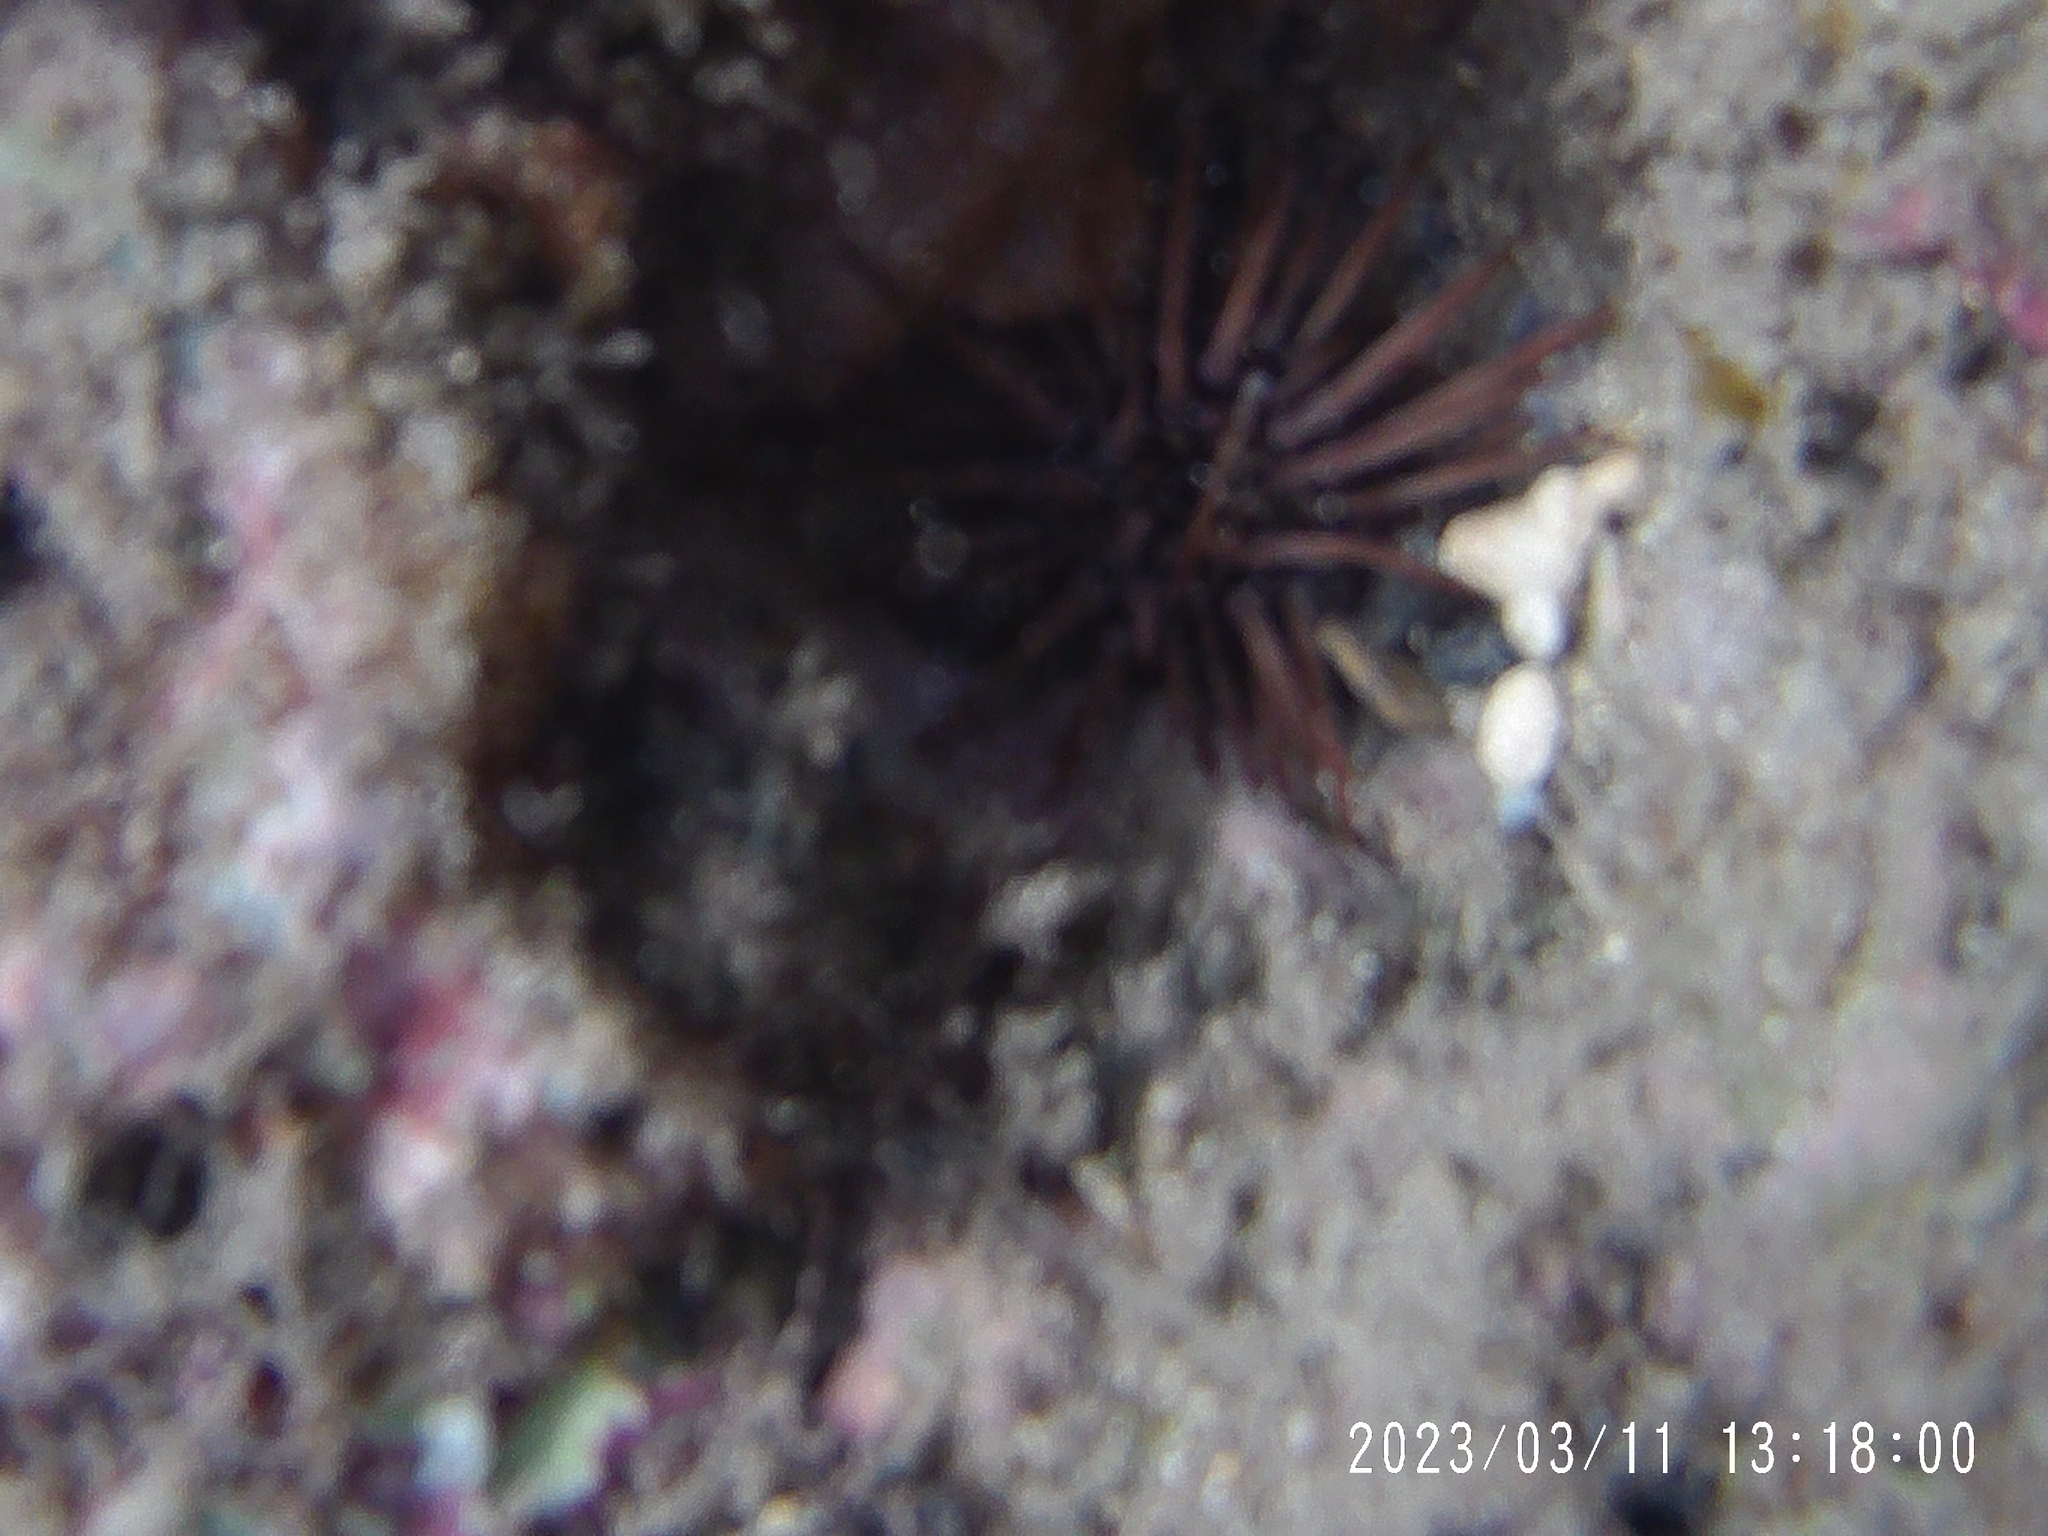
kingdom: Animalia
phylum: Echinodermata
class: Echinoidea
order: Camarodonta
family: Echinometridae
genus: Echinometra
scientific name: Echinometra mathaei
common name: Rock-boring urchin
